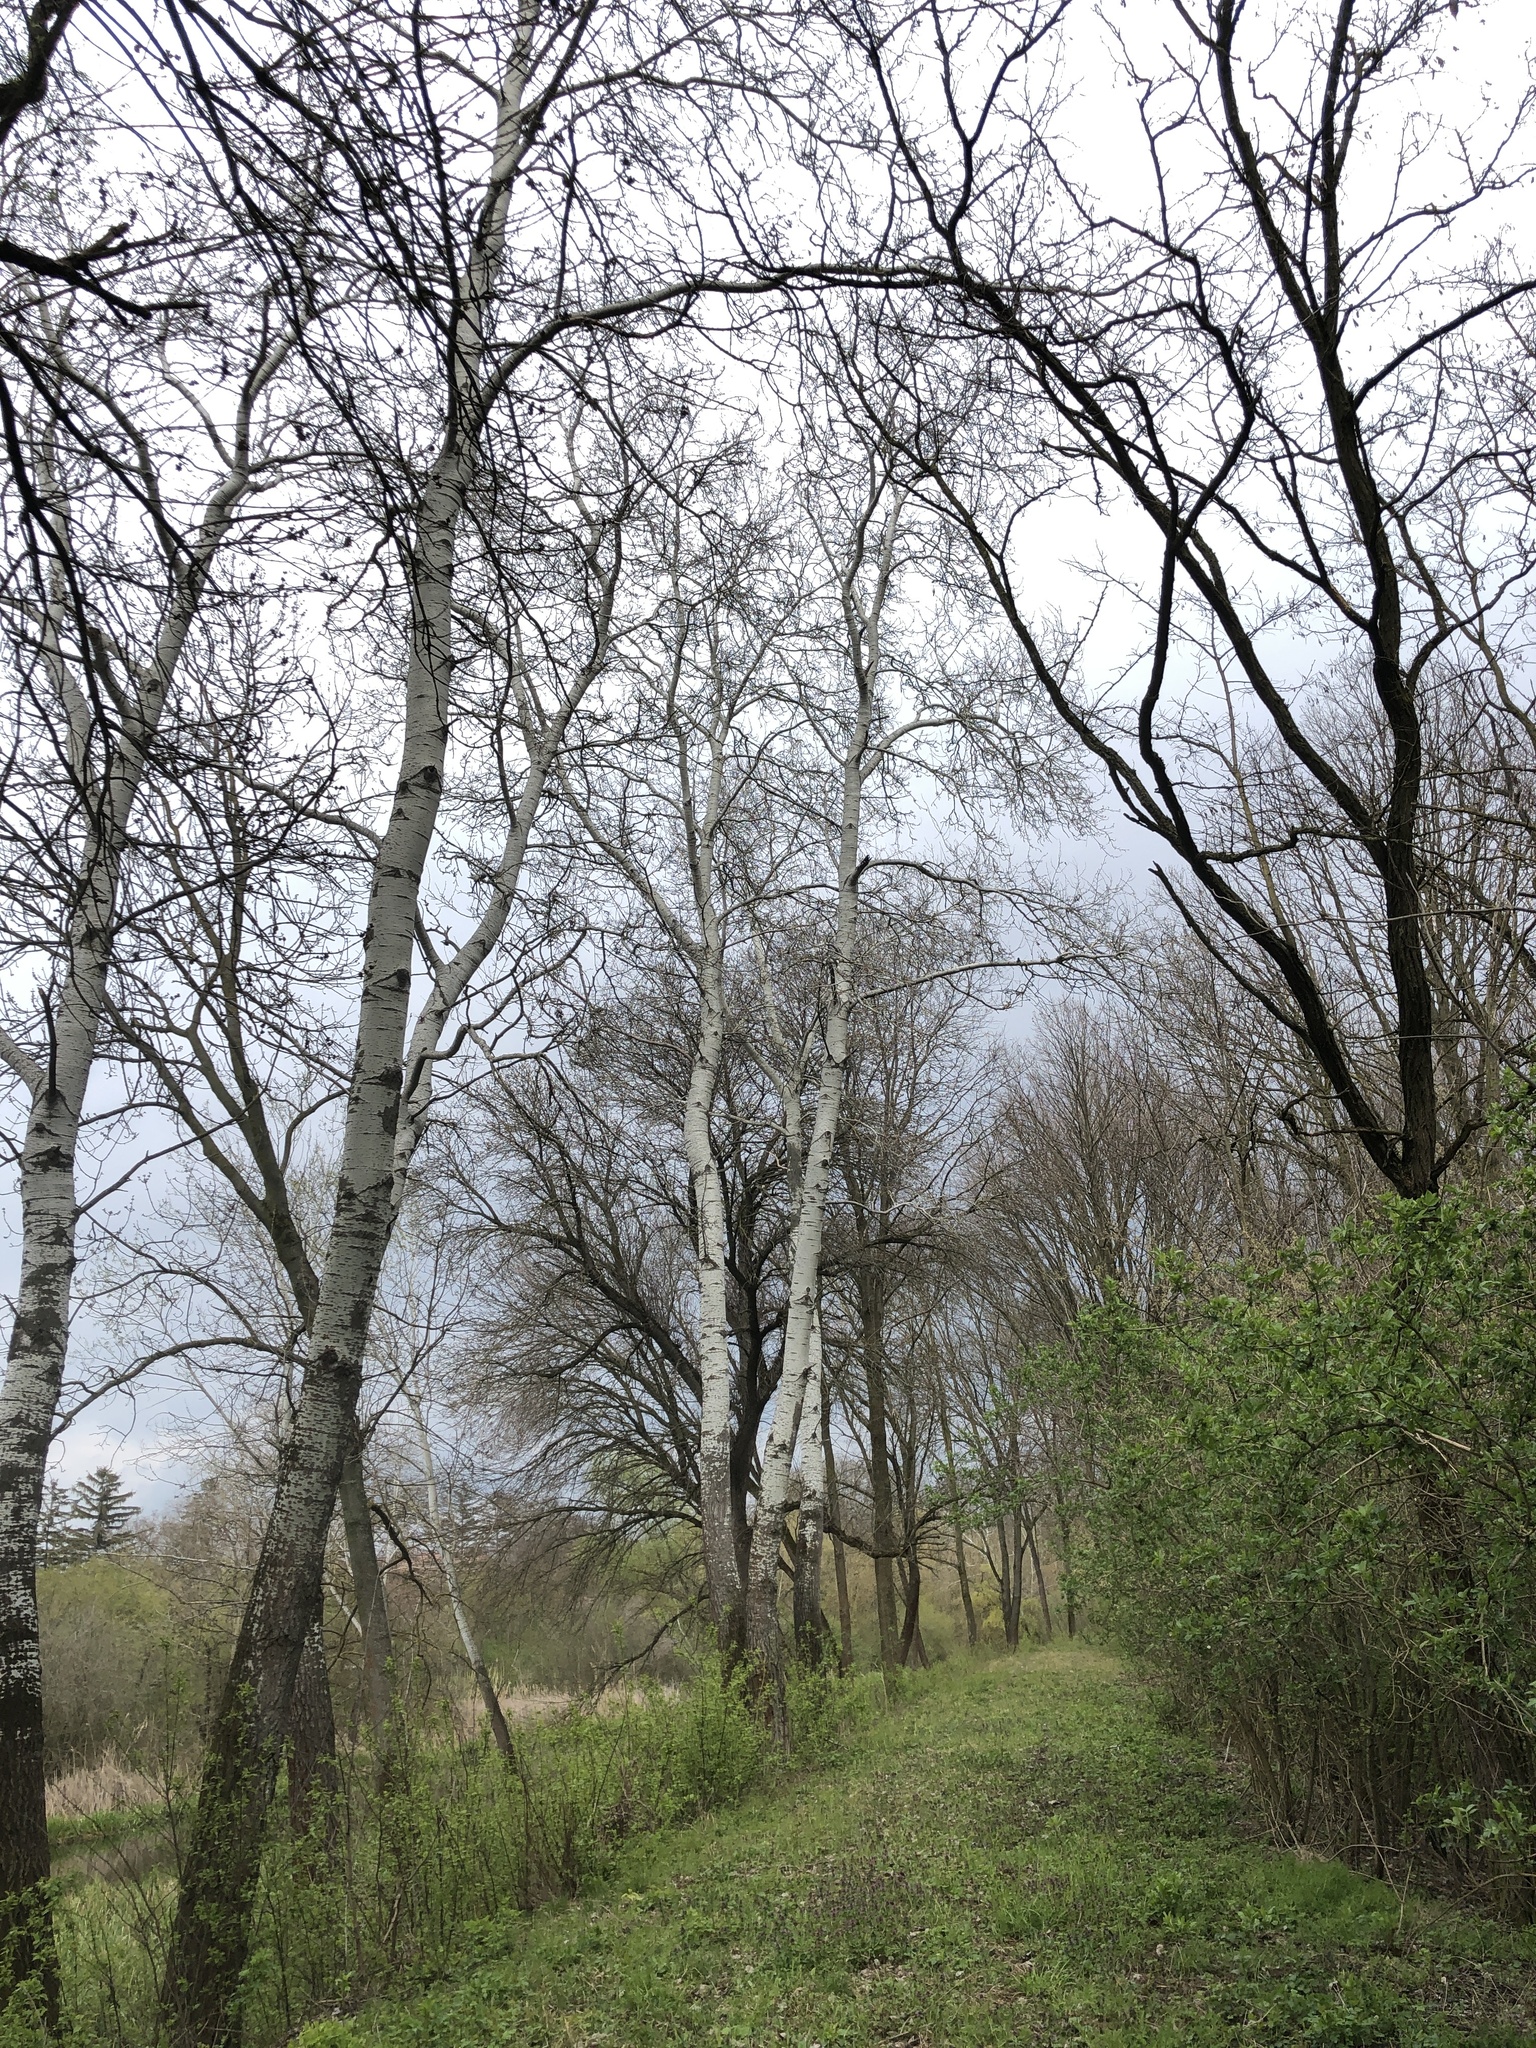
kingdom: Plantae
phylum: Tracheophyta
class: Magnoliopsida
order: Malpighiales
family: Salicaceae
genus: Populus
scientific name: Populus alba
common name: White poplar
